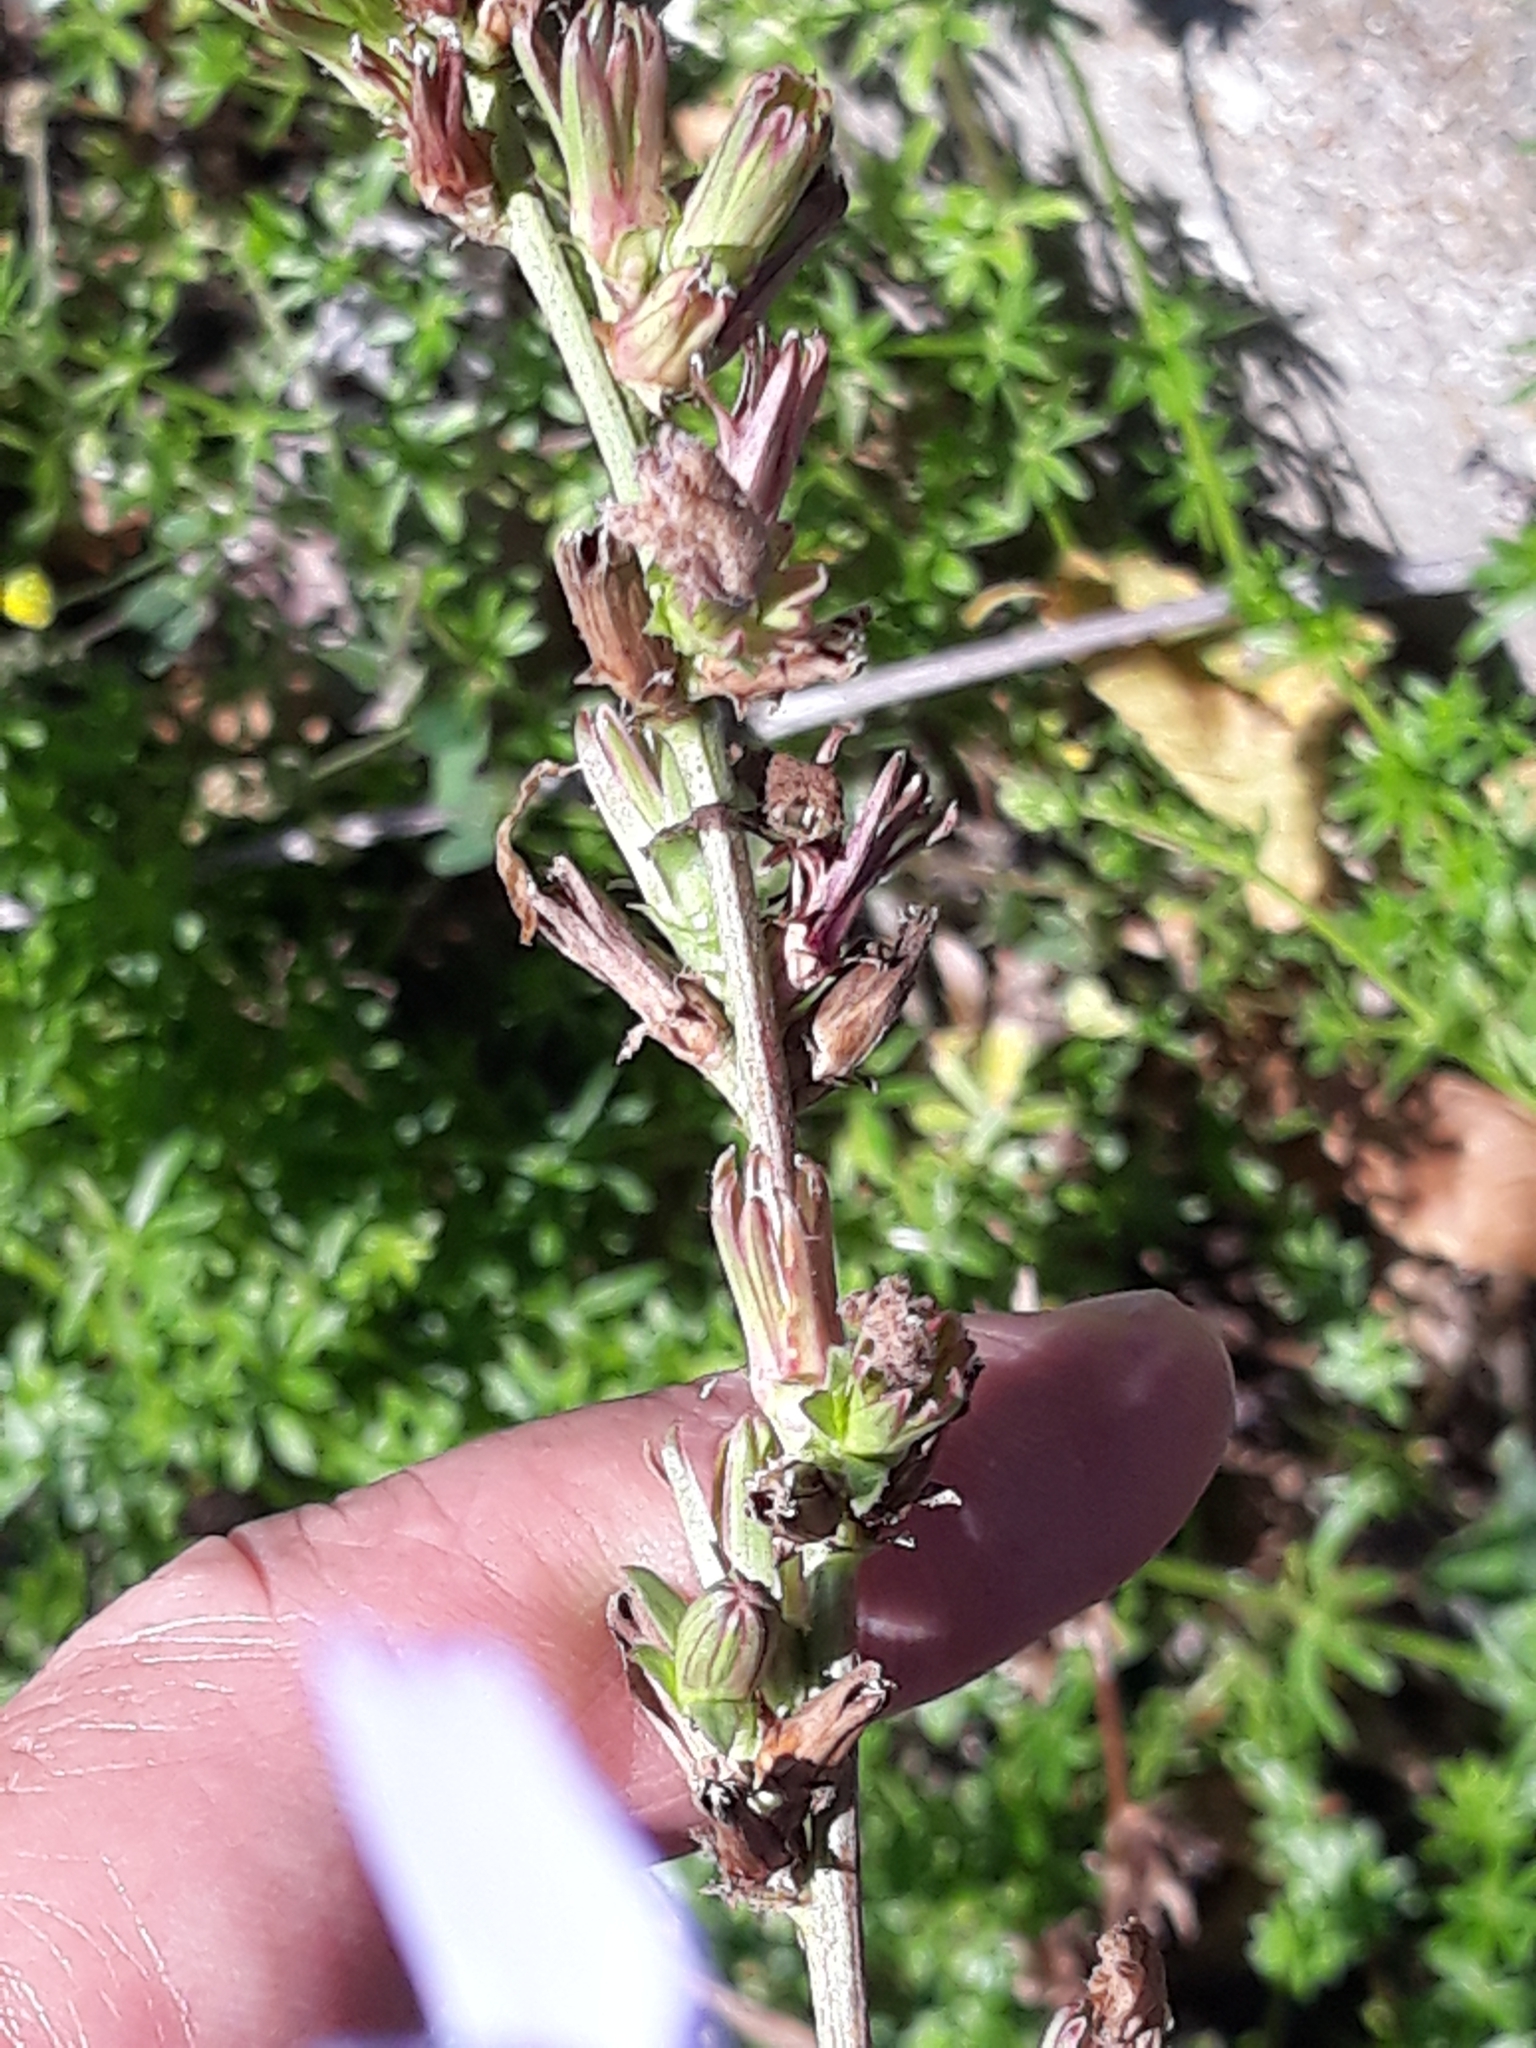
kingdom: Plantae
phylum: Tracheophyta
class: Magnoliopsida
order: Asterales
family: Asteraceae
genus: Cichorium
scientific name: Cichorium intybus
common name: Chicory
